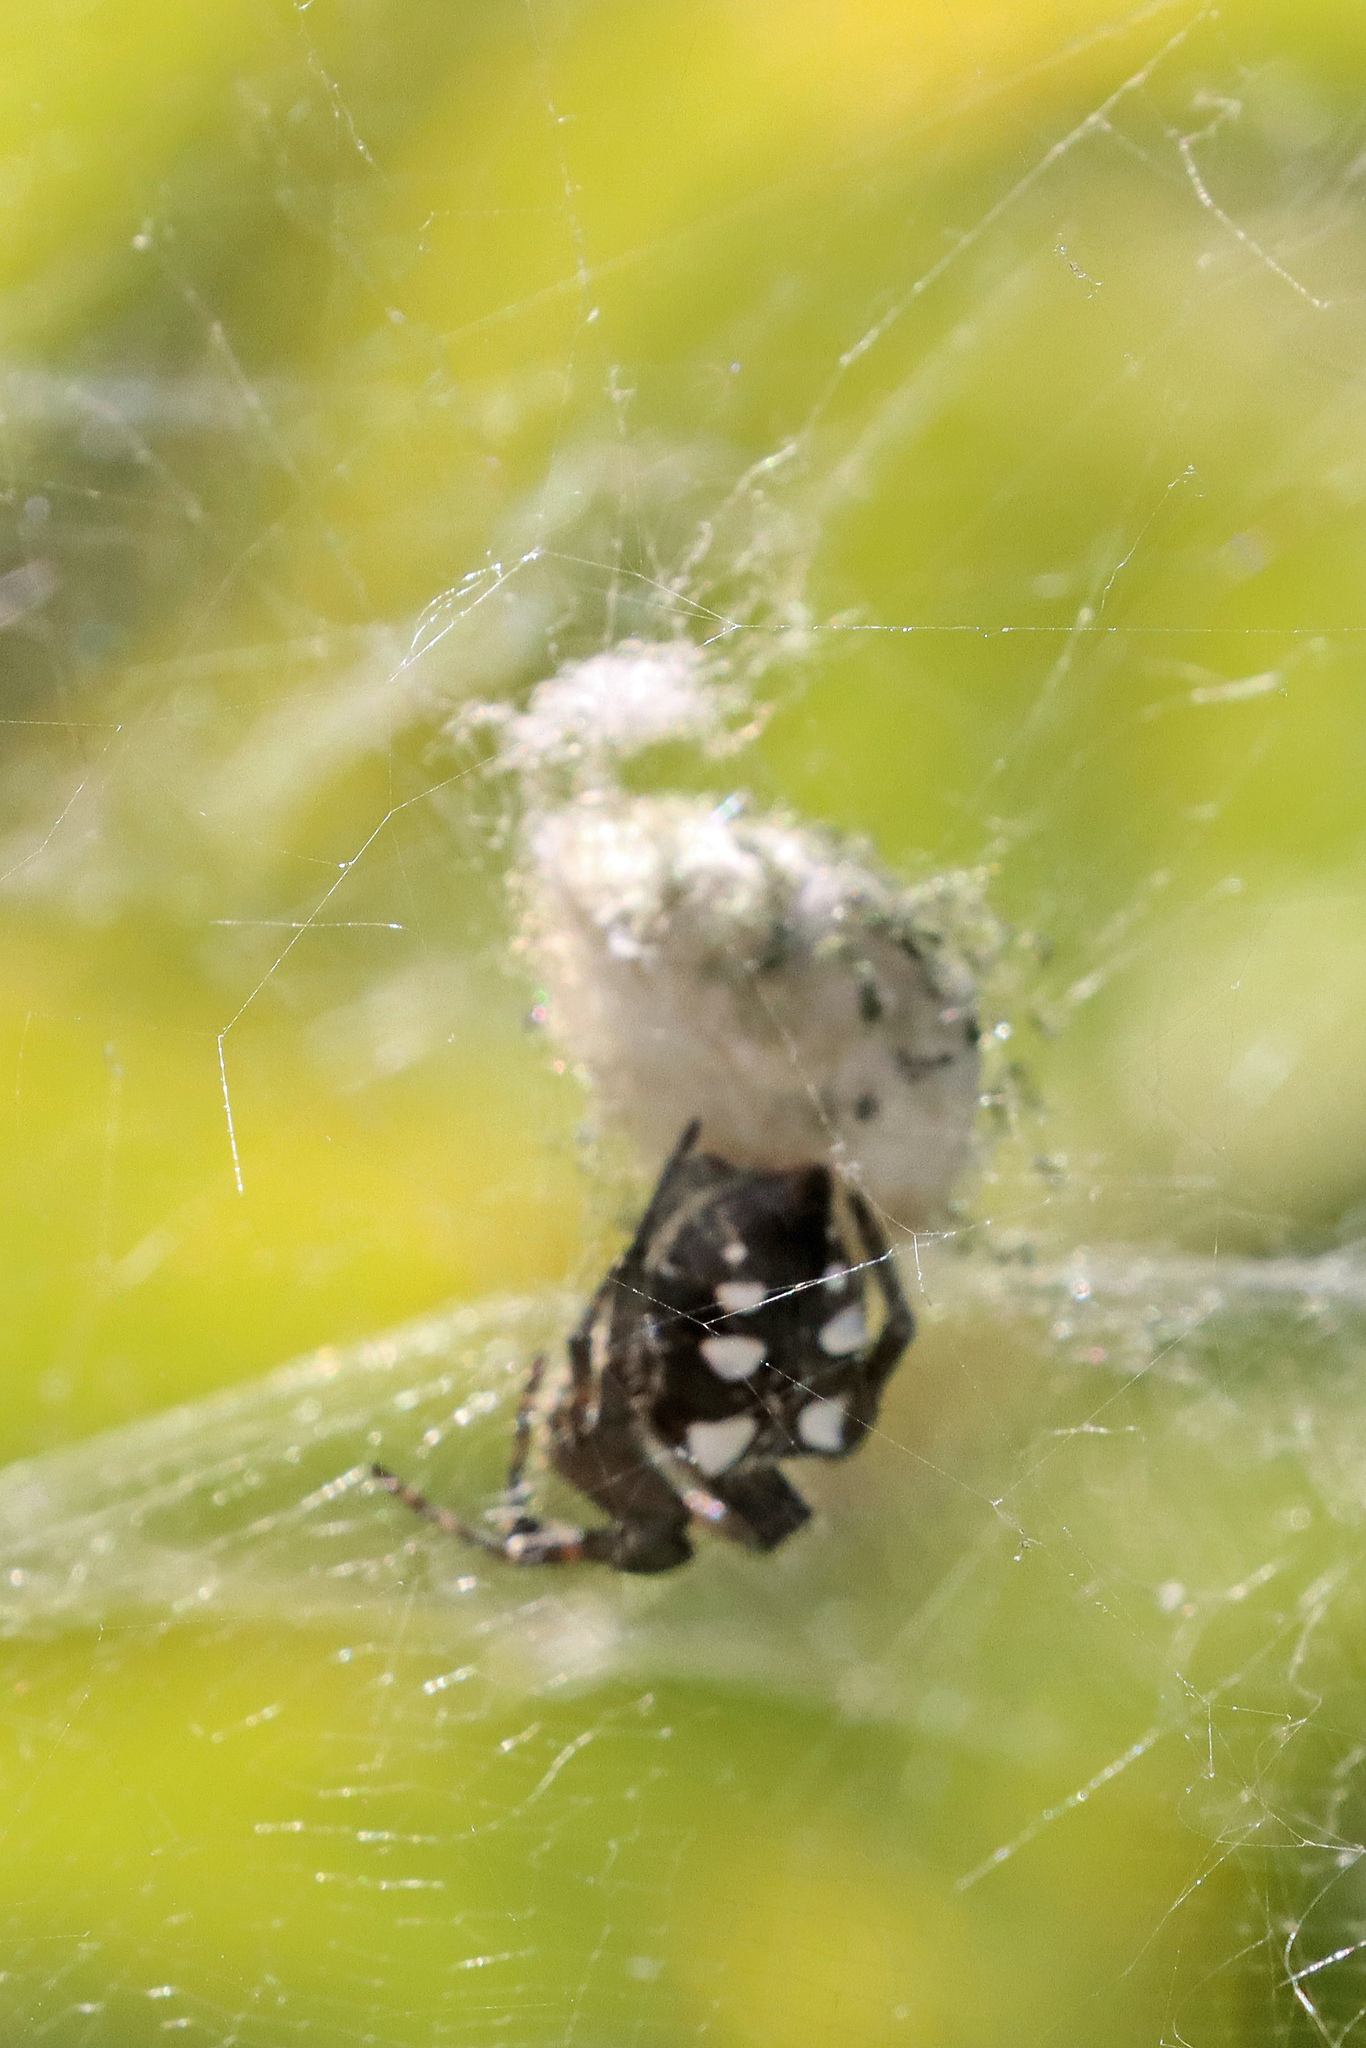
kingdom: Animalia
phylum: Arthropoda
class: Arachnida
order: Araneae
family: Araneidae
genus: Cyrtophora
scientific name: Cyrtophora citricola
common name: Orb weavers
